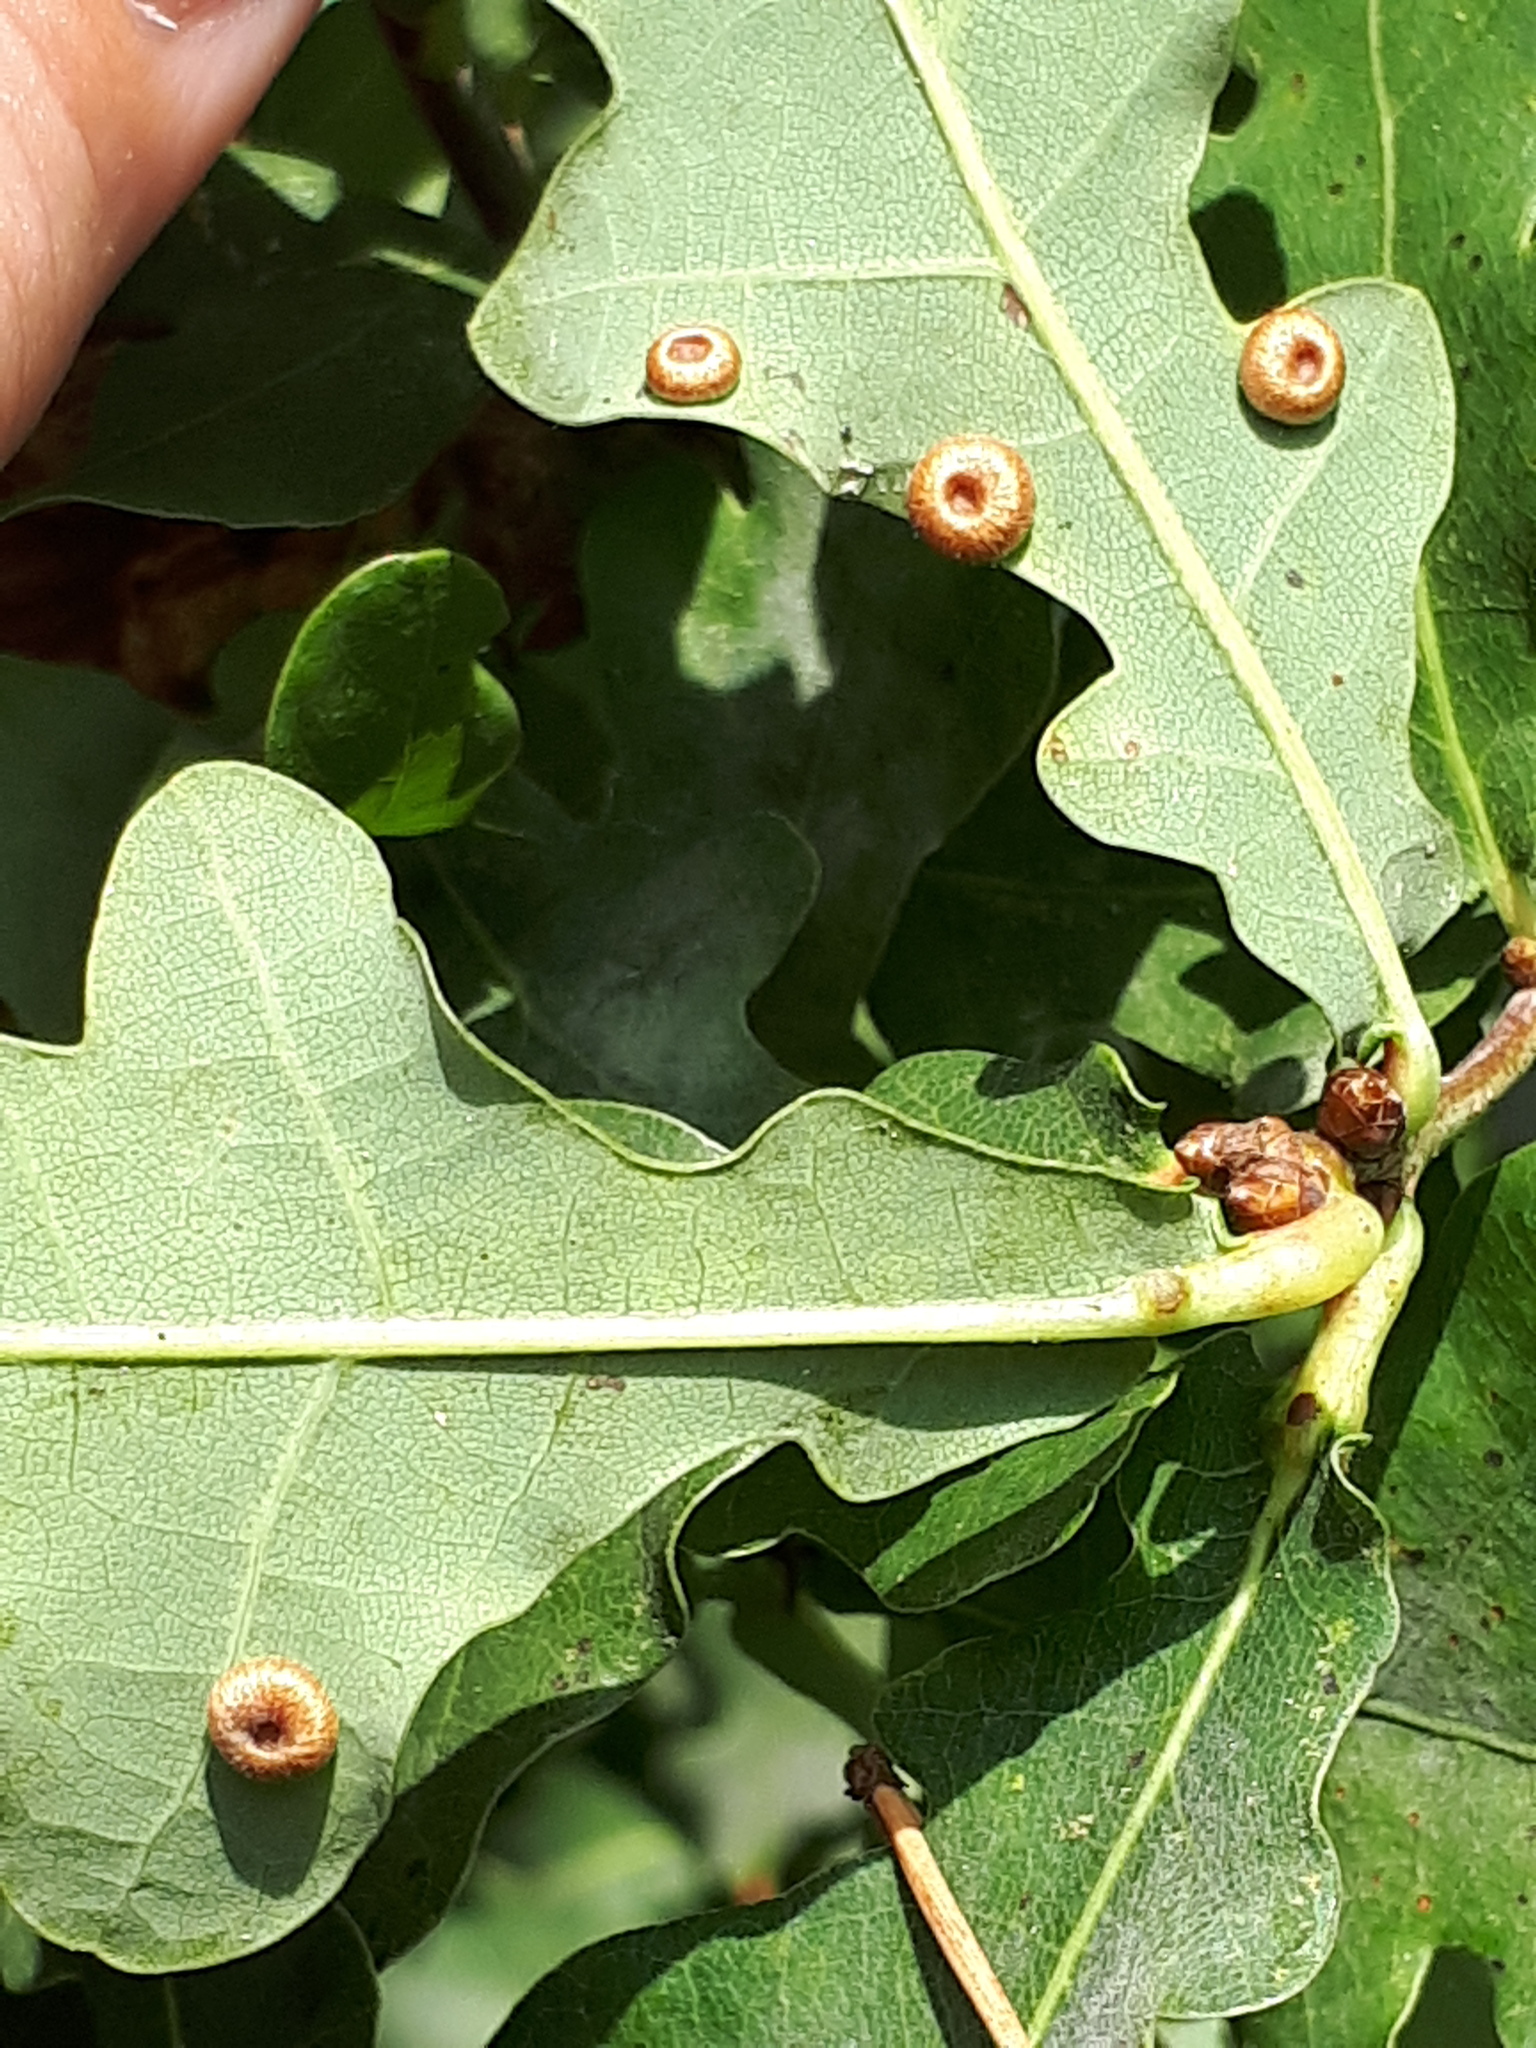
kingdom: Animalia
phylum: Arthropoda
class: Insecta
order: Hymenoptera
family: Cynipidae
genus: Neuroterus
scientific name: Neuroterus numismalis
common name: Silk-button spangle gall
